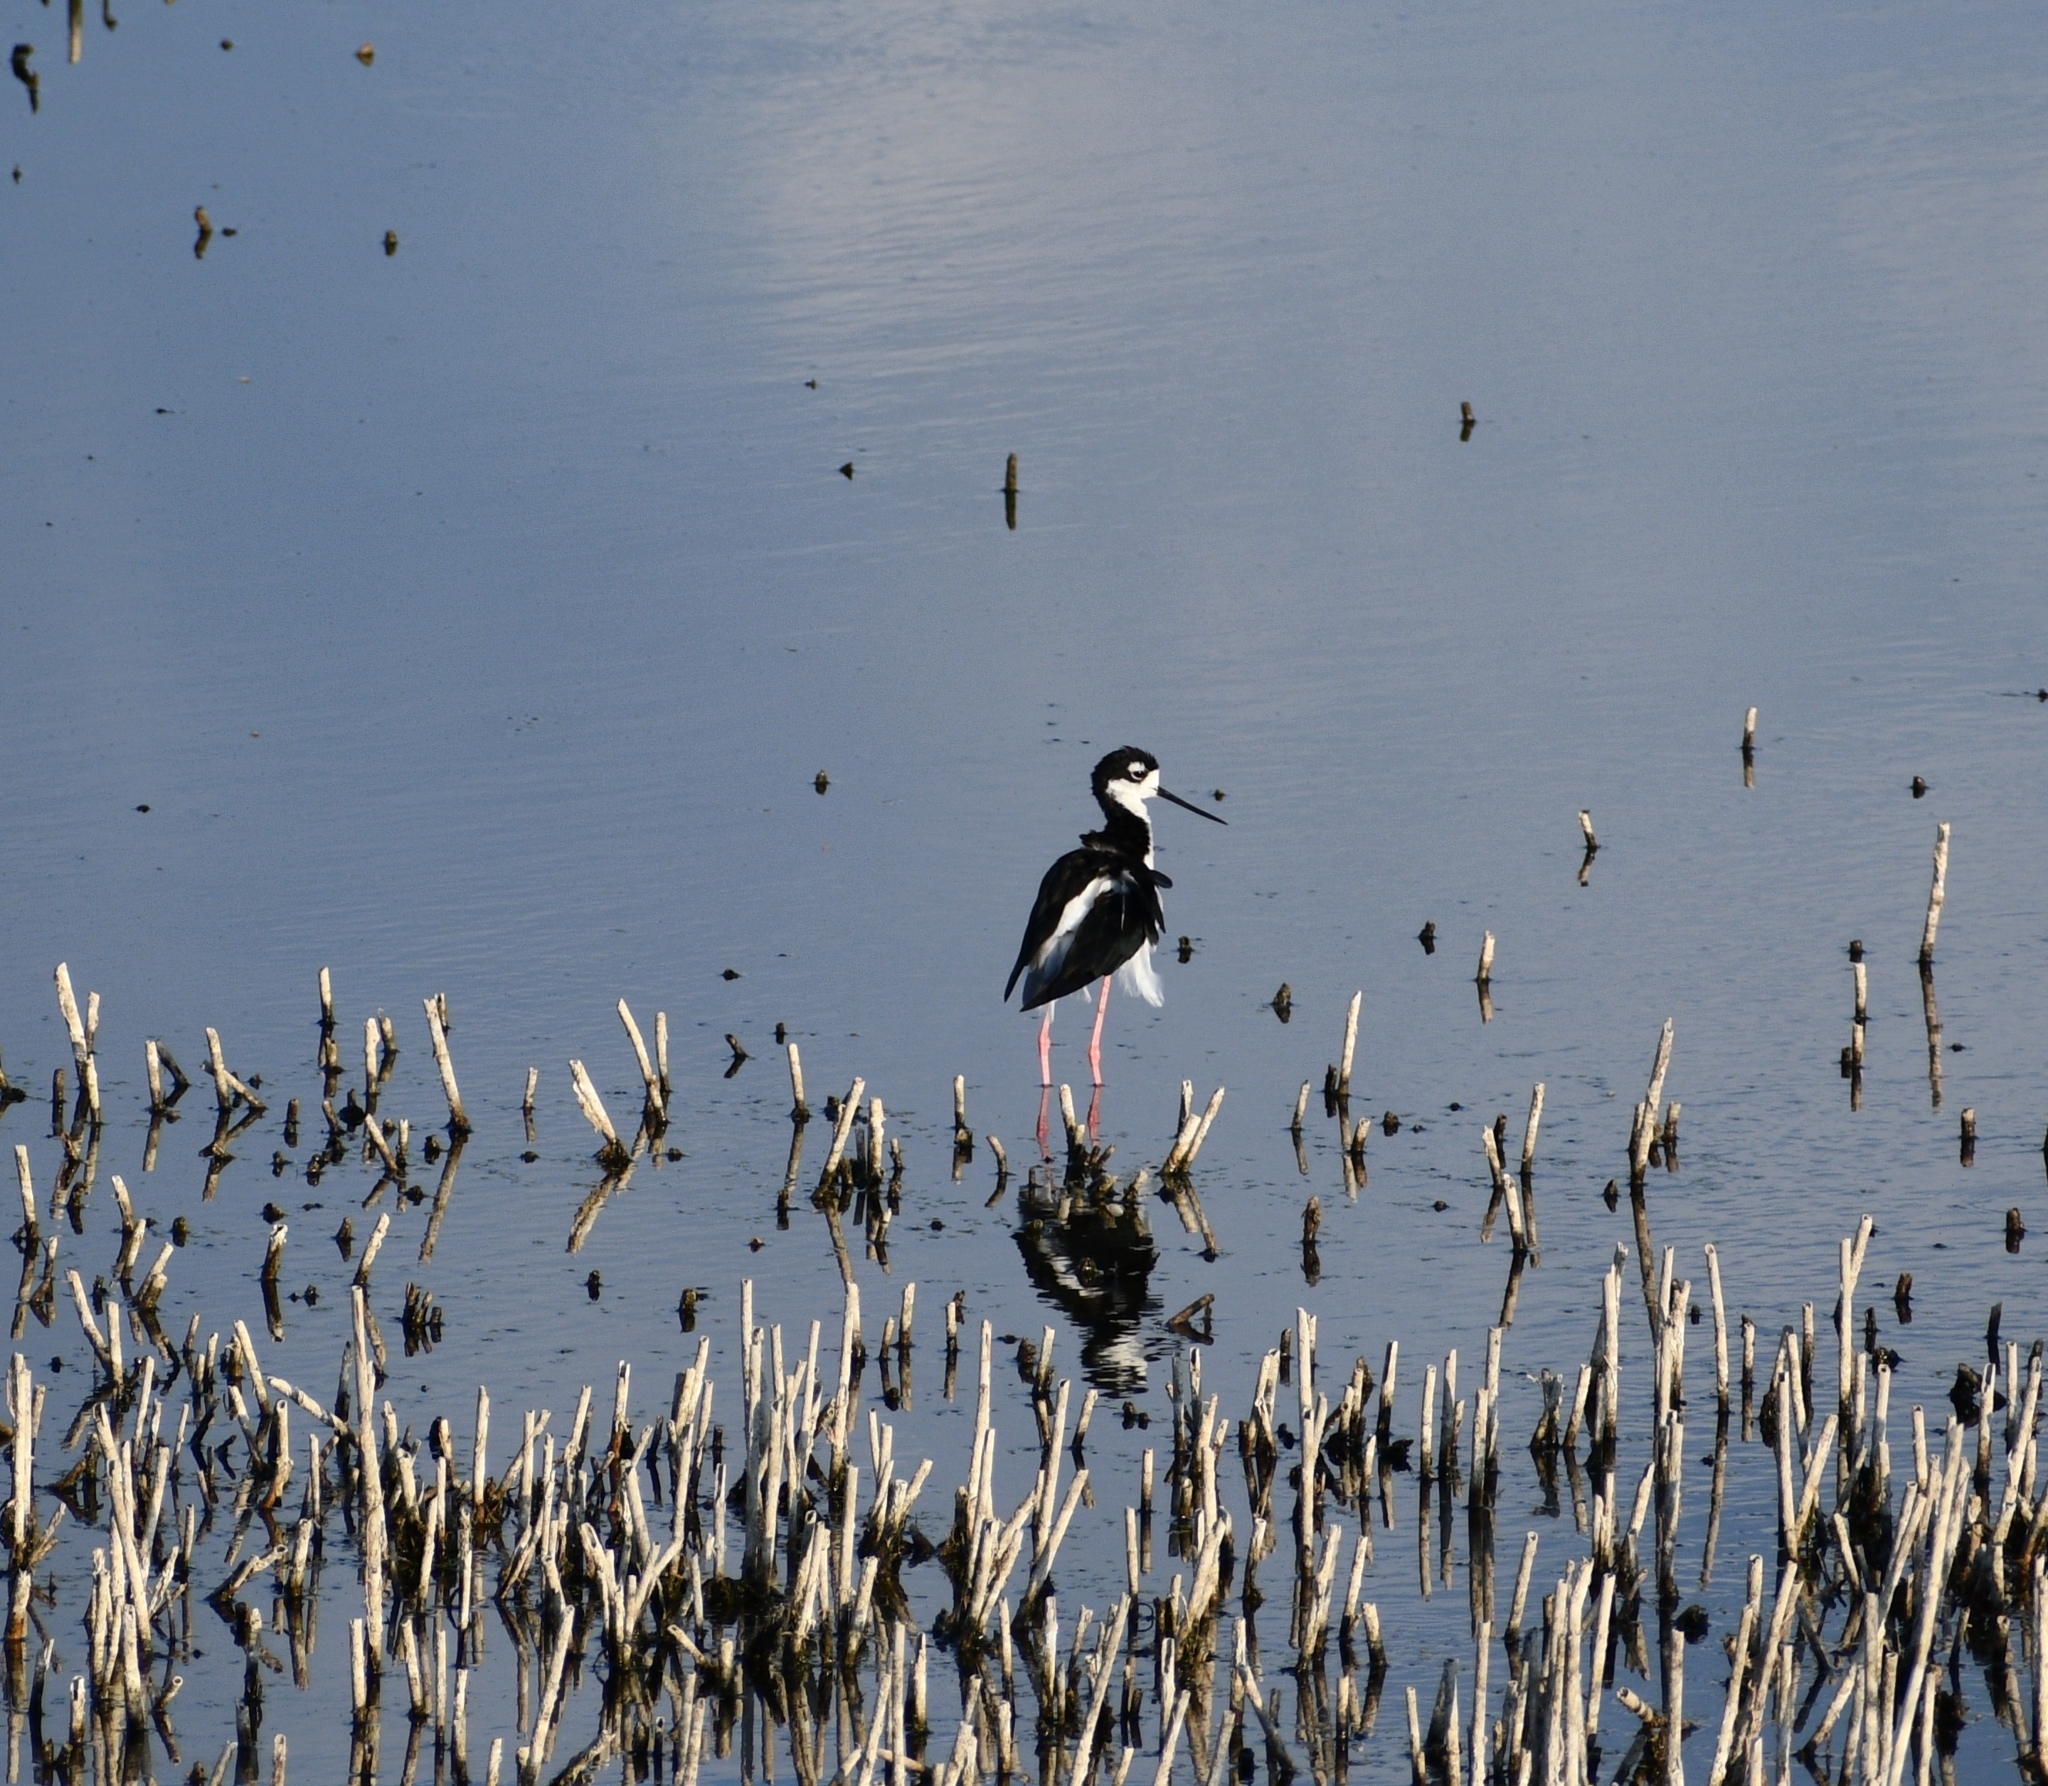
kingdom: Animalia
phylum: Chordata
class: Aves
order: Charadriiformes
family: Recurvirostridae
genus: Himantopus
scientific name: Himantopus mexicanus
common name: Black-necked stilt
